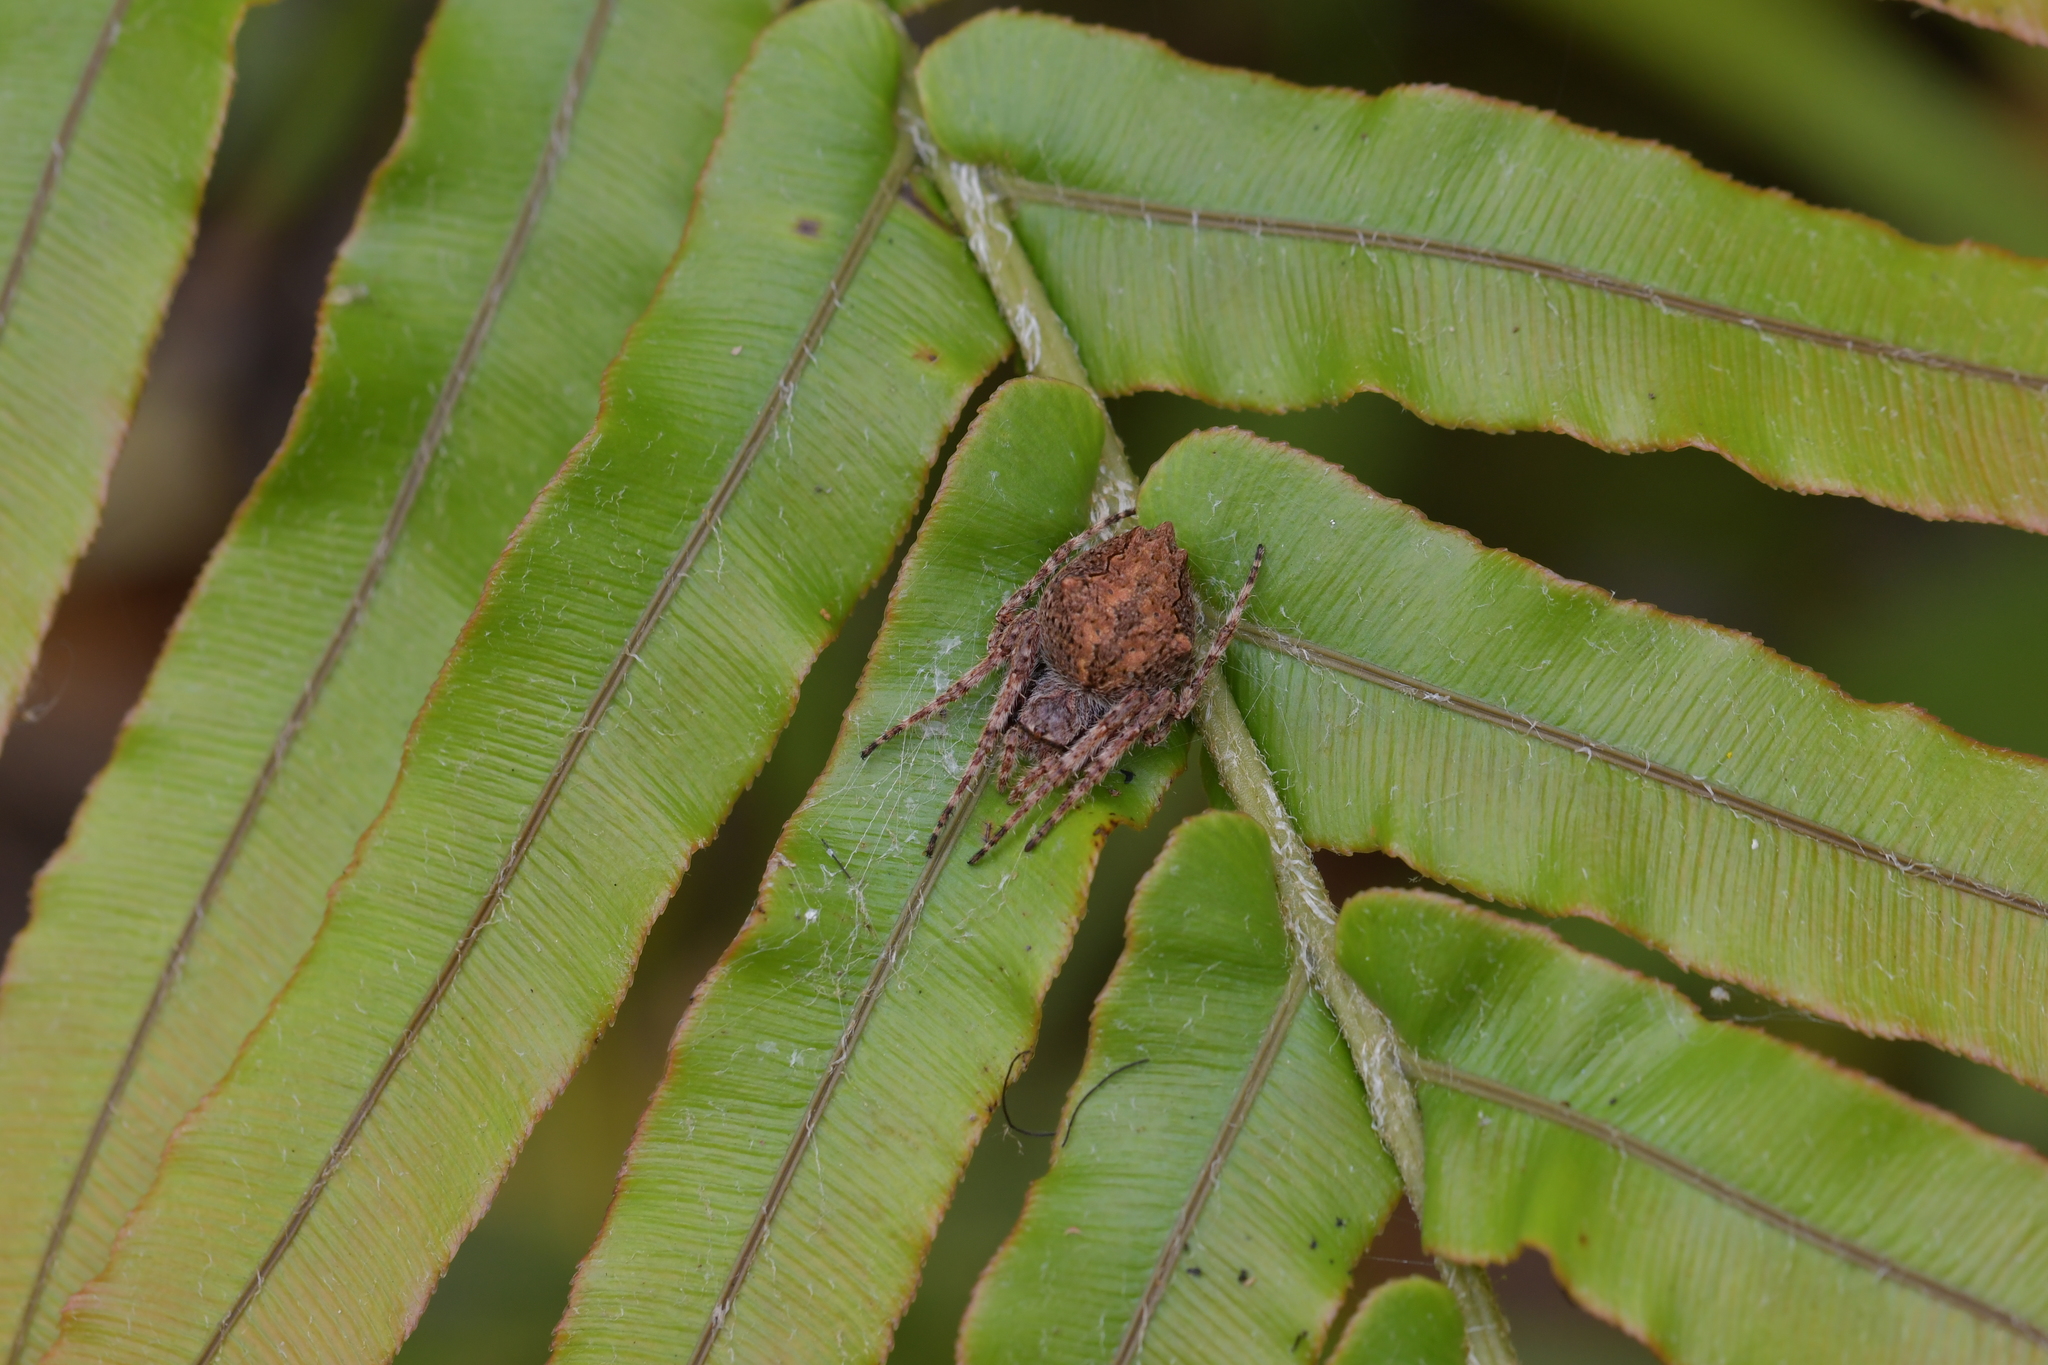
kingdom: Animalia
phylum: Arthropoda
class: Arachnida
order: Araneae
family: Araneidae
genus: Eriophora
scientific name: Eriophora pustulosa
